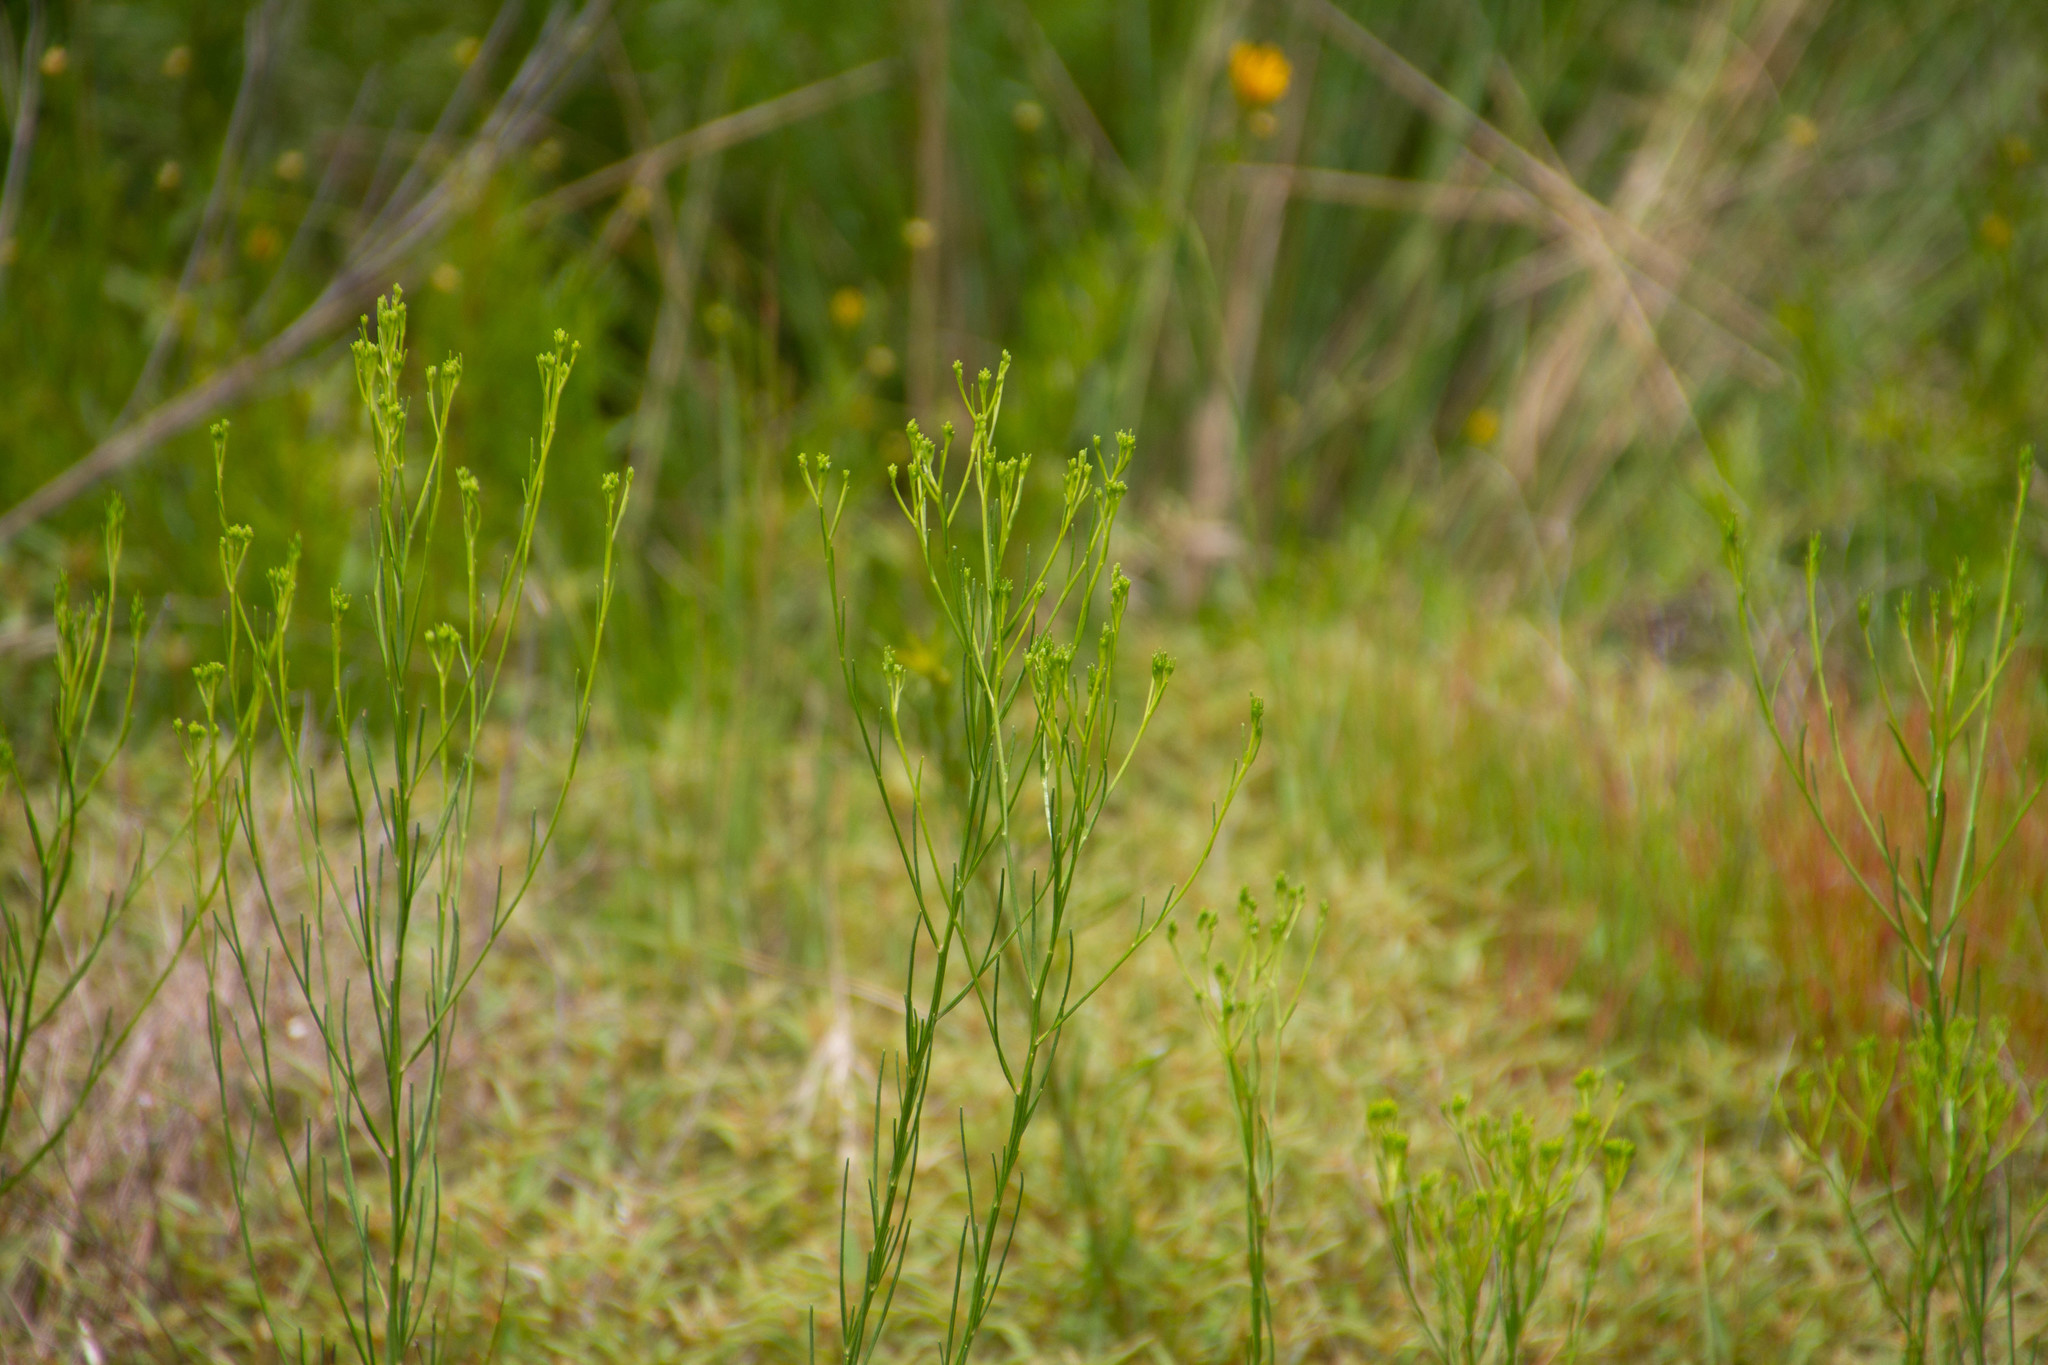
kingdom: Plantae
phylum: Tracheophyta
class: Magnoliopsida
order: Asterales
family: Asteraceae
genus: Bigelowia
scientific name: Bigelowia nuttallii
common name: Nuttall's rayless-goldenrod
